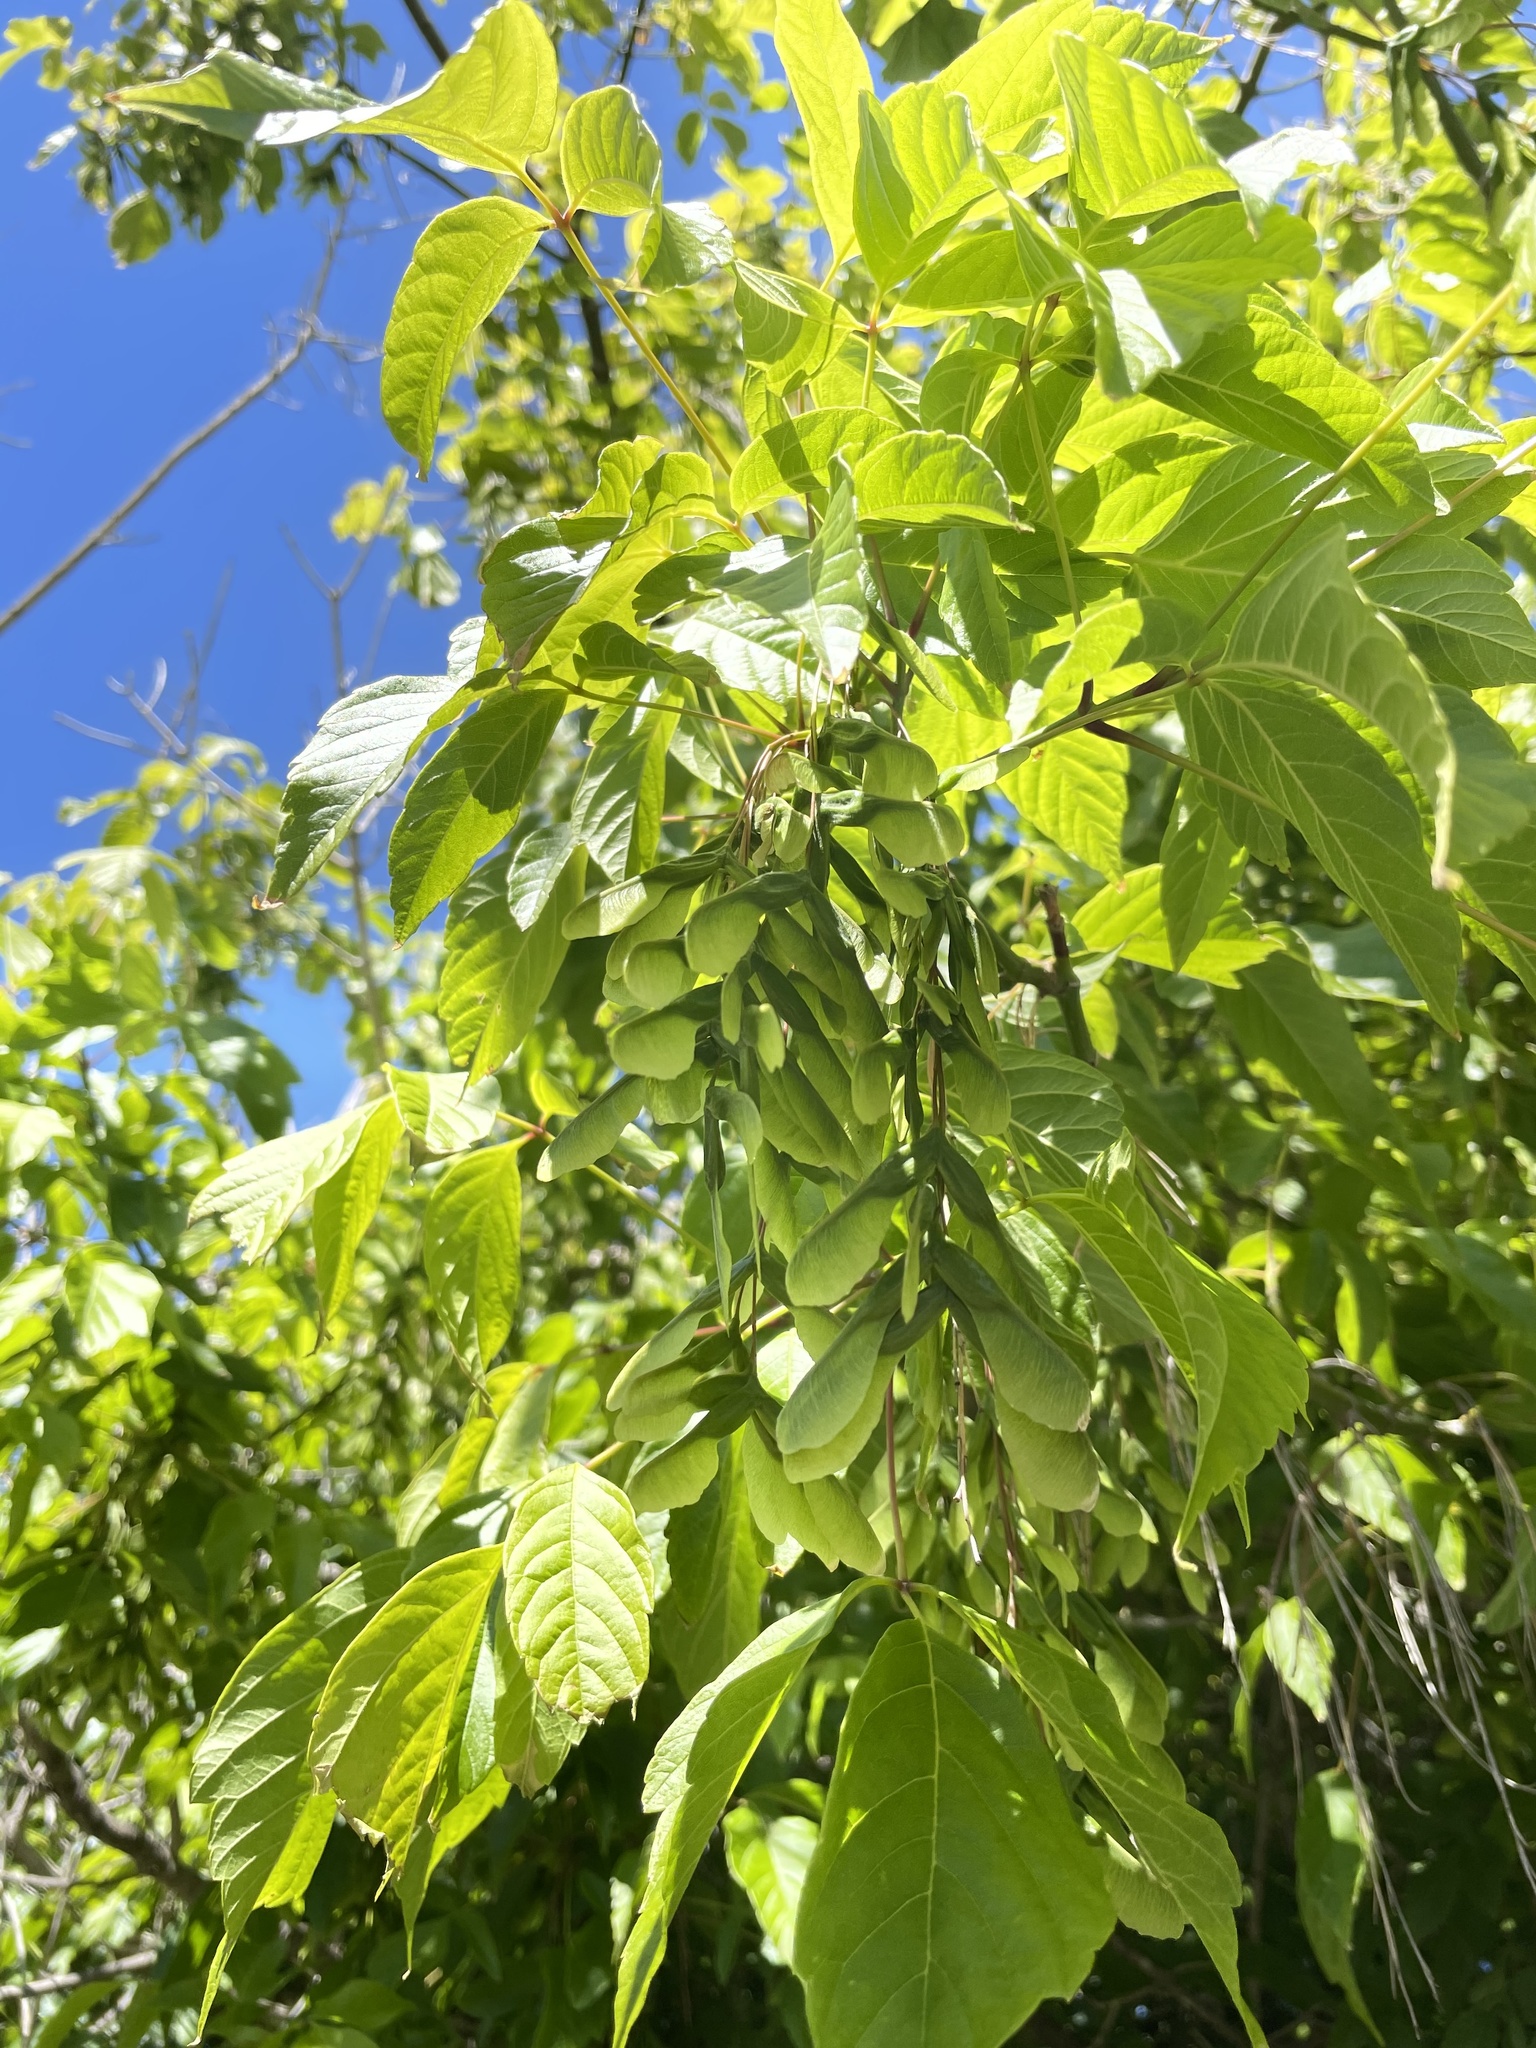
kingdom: Plantae
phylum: Tracheophyta
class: Magnoliopsida
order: Sapindales
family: Sapindaceae
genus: Acer
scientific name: Acer negundo
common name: Ashleaf maple
